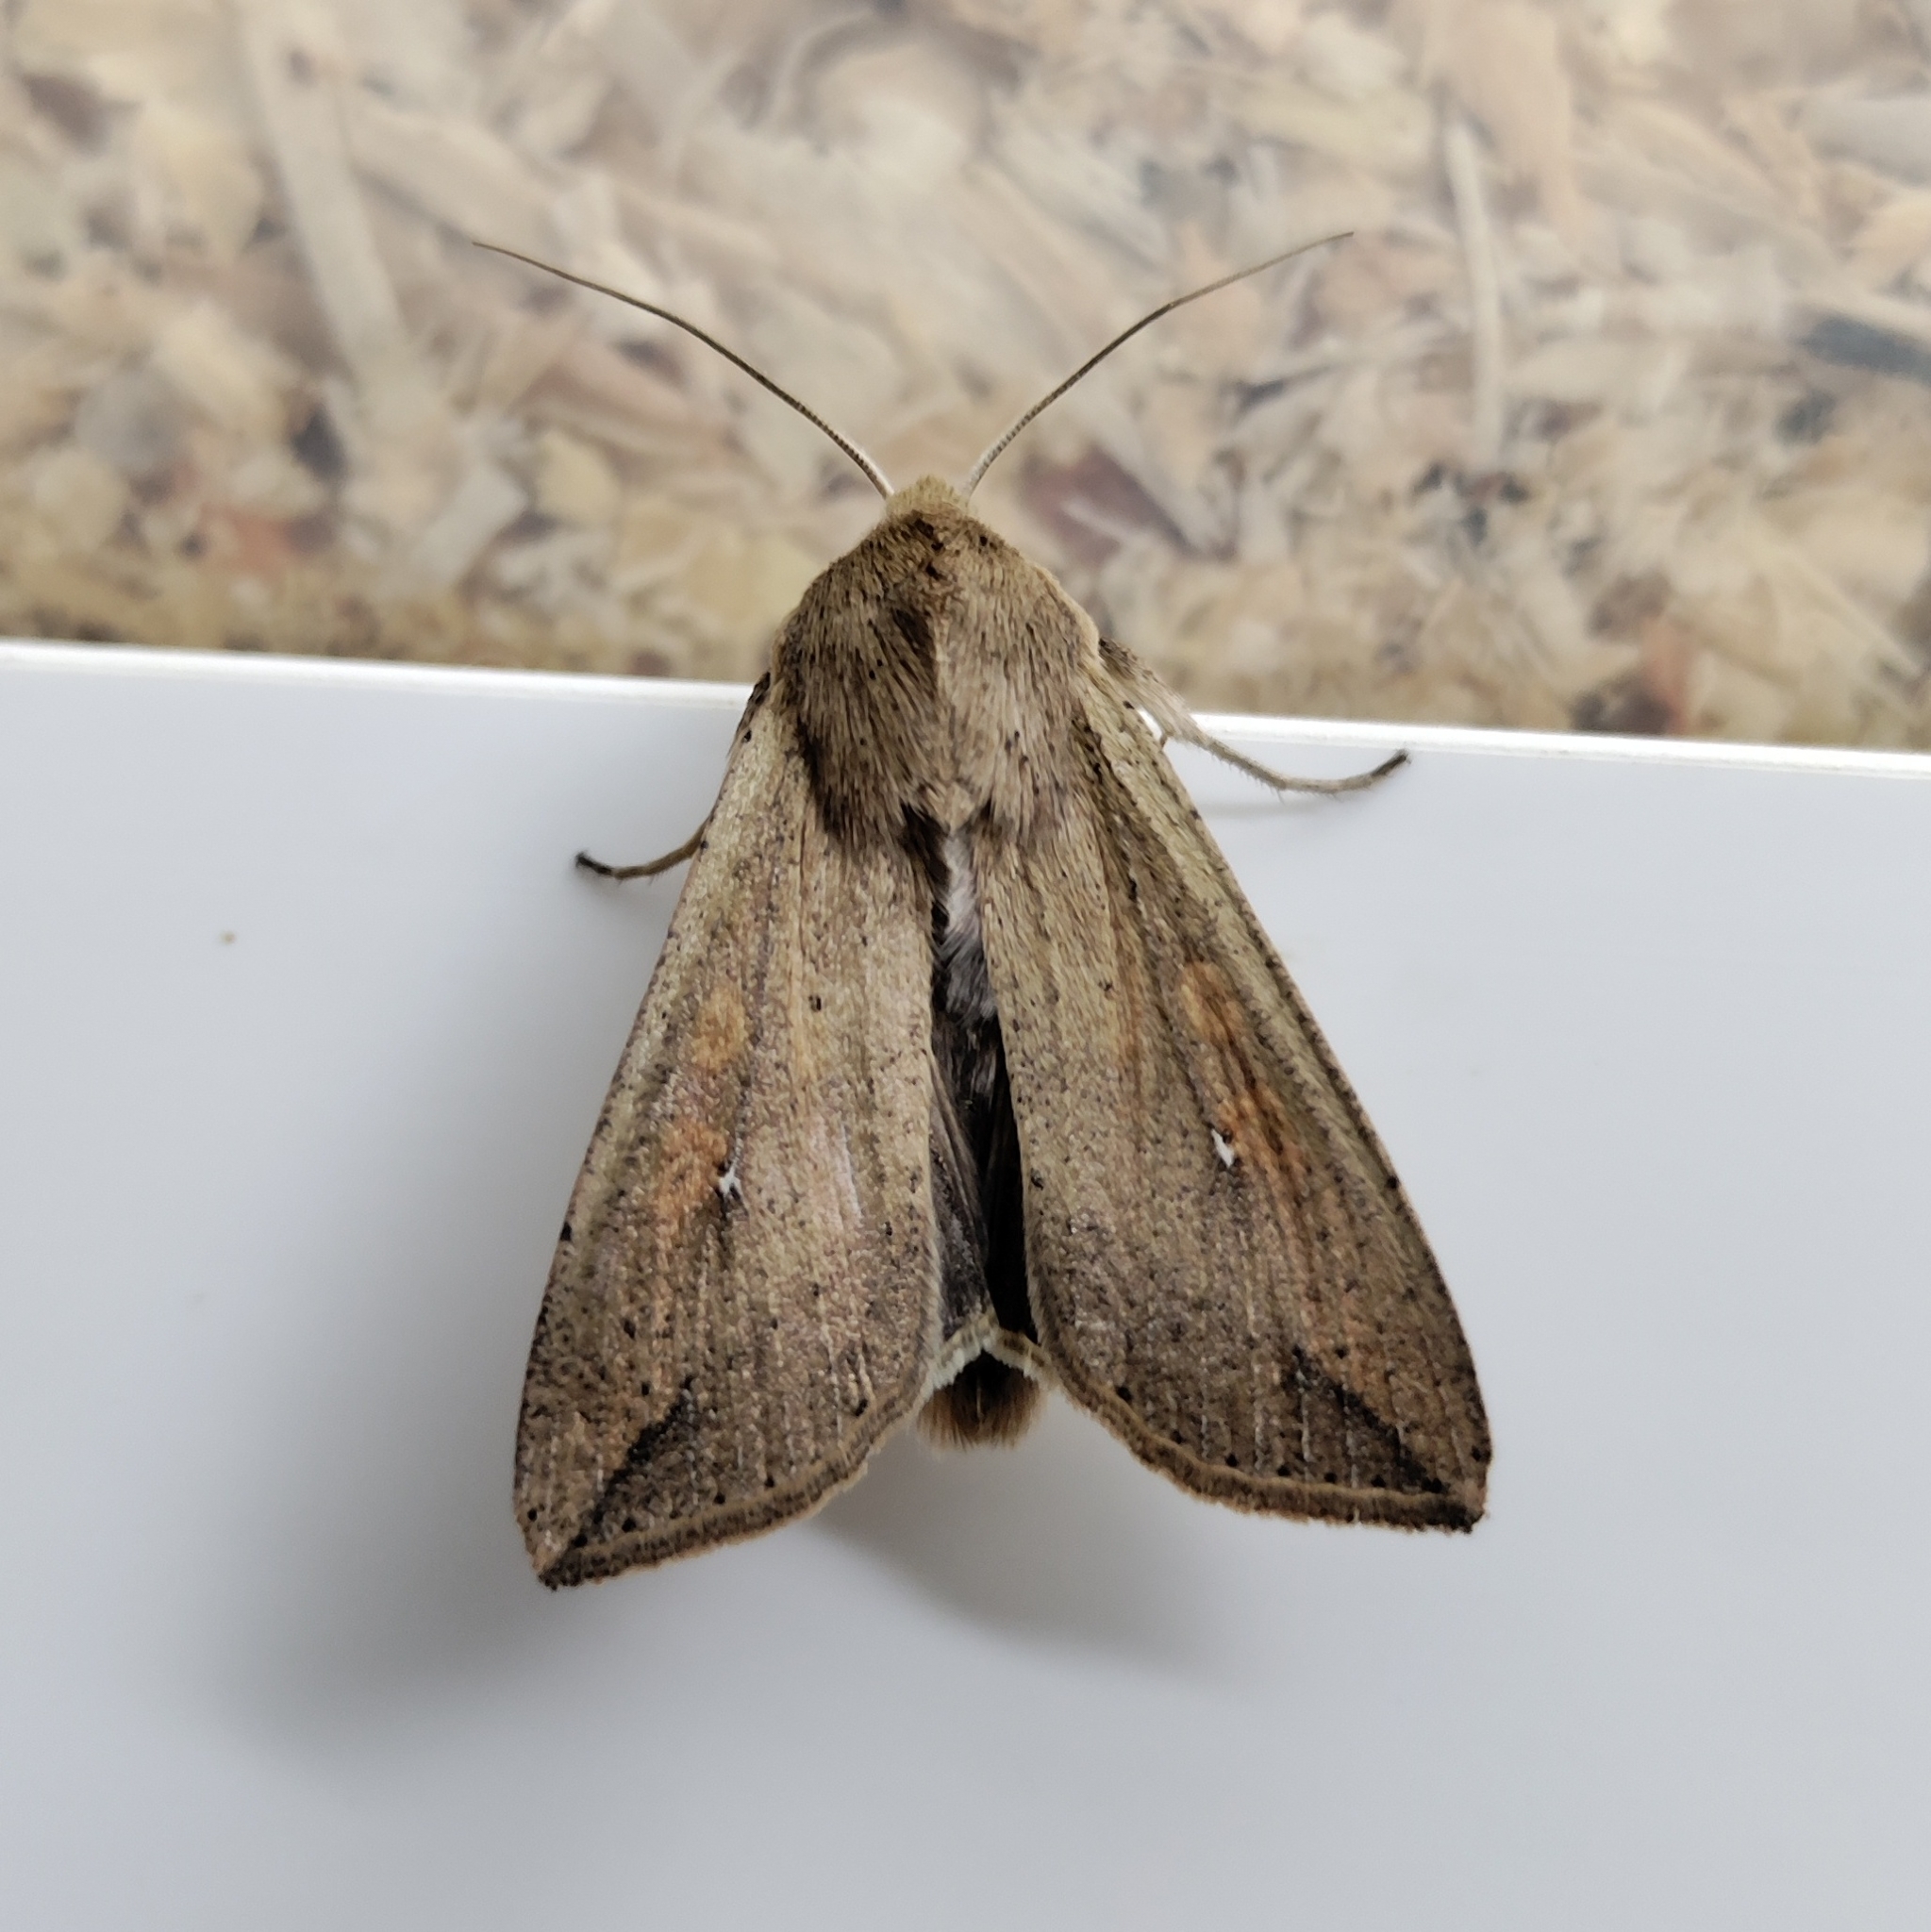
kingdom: Animalia
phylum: Arthropoda
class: Insecta
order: Lepidoptera
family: Noctuidae
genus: Mythimna
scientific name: Mythimna unipuncta
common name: White-speck
